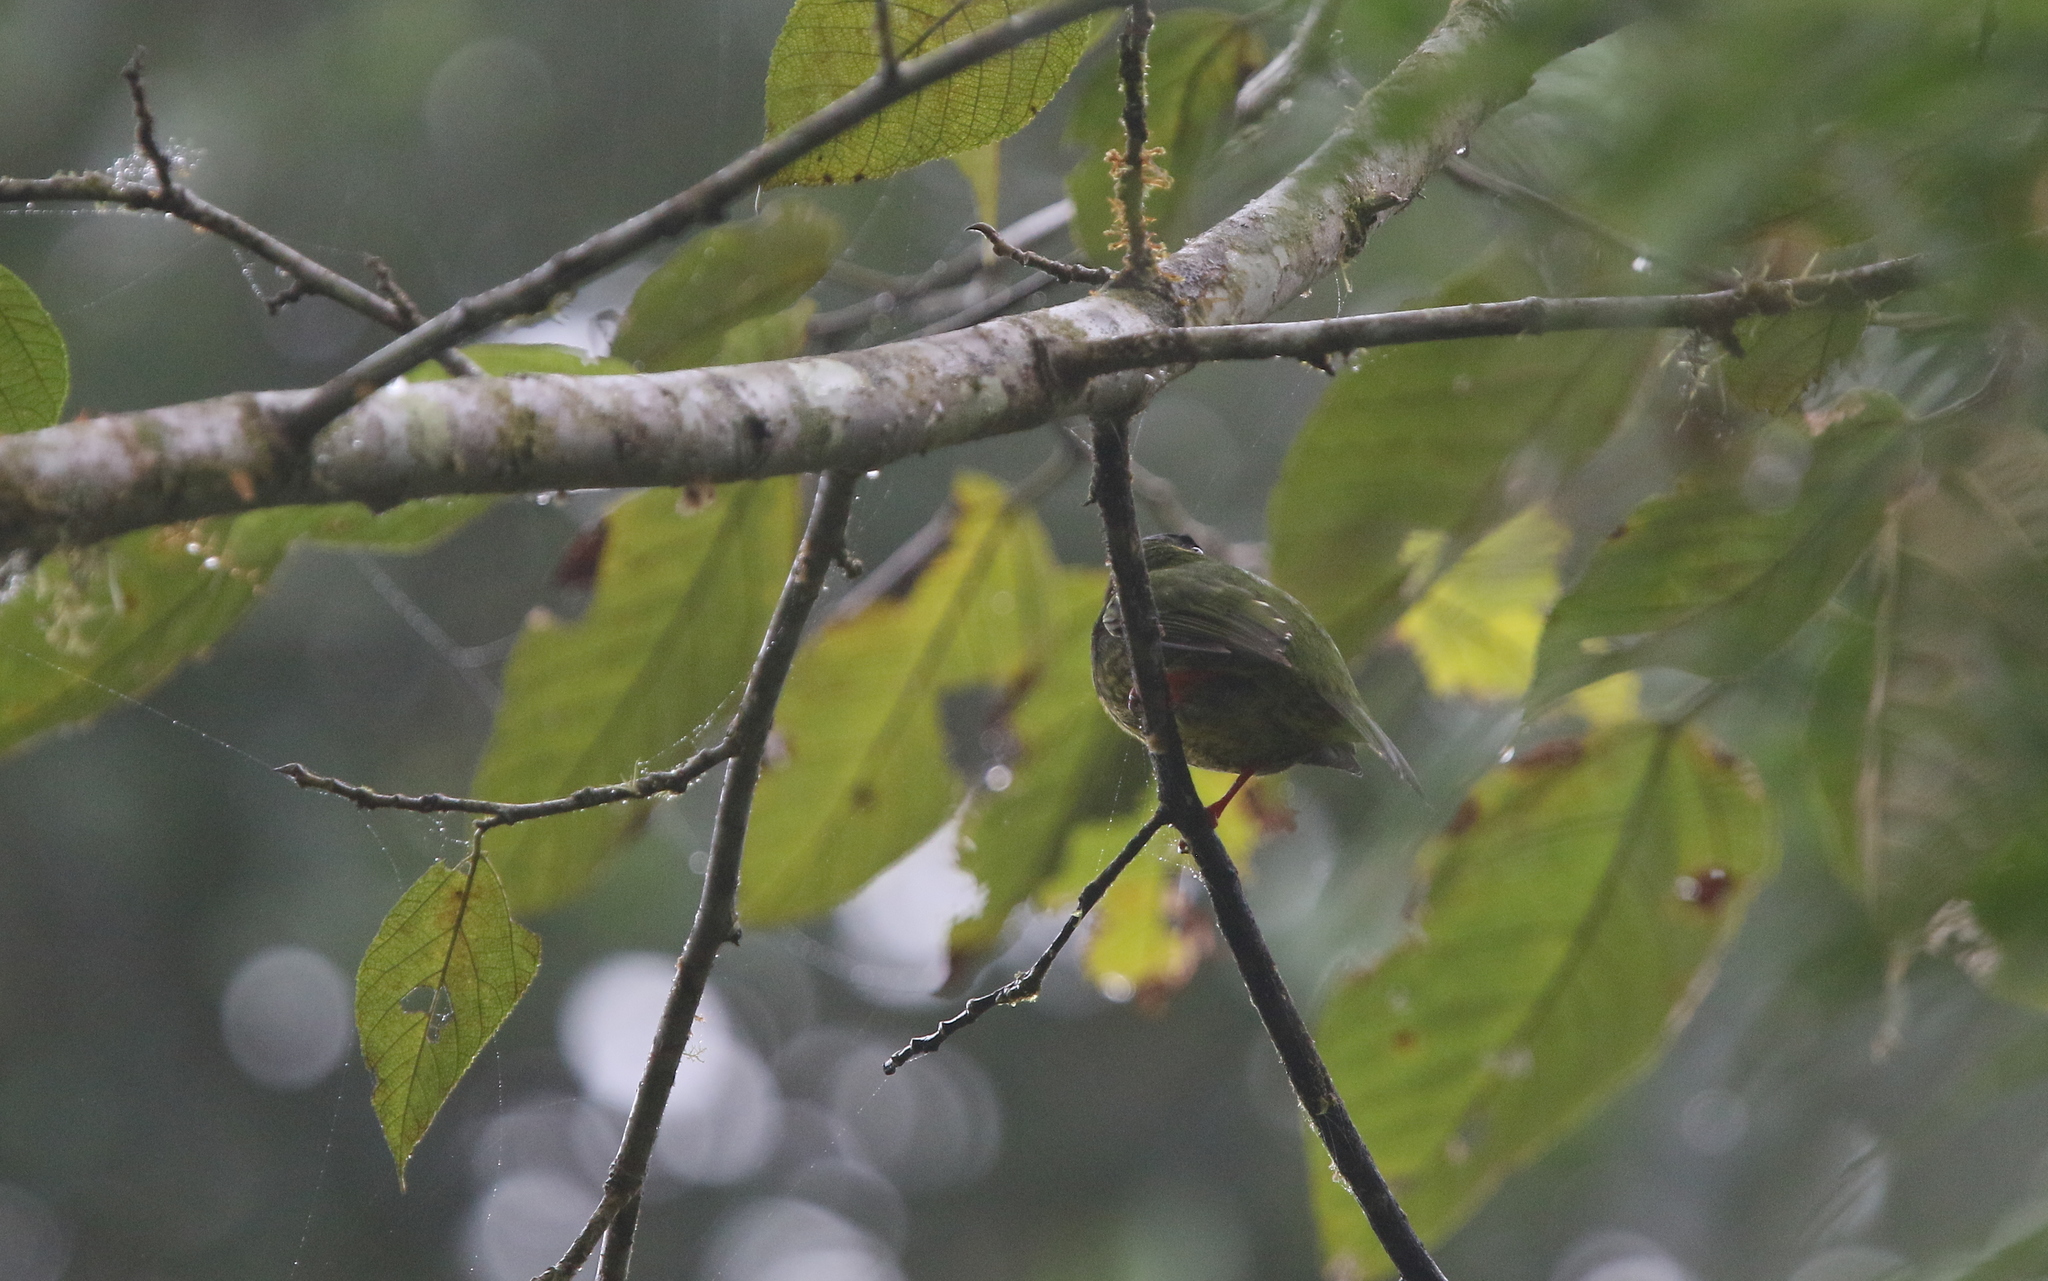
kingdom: Animalia
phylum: Chordata
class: Aves
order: Passeriformes
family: Cotingidae
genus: Pipreola
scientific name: Pipreola riefferii
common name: Green-and-black fruiteater
